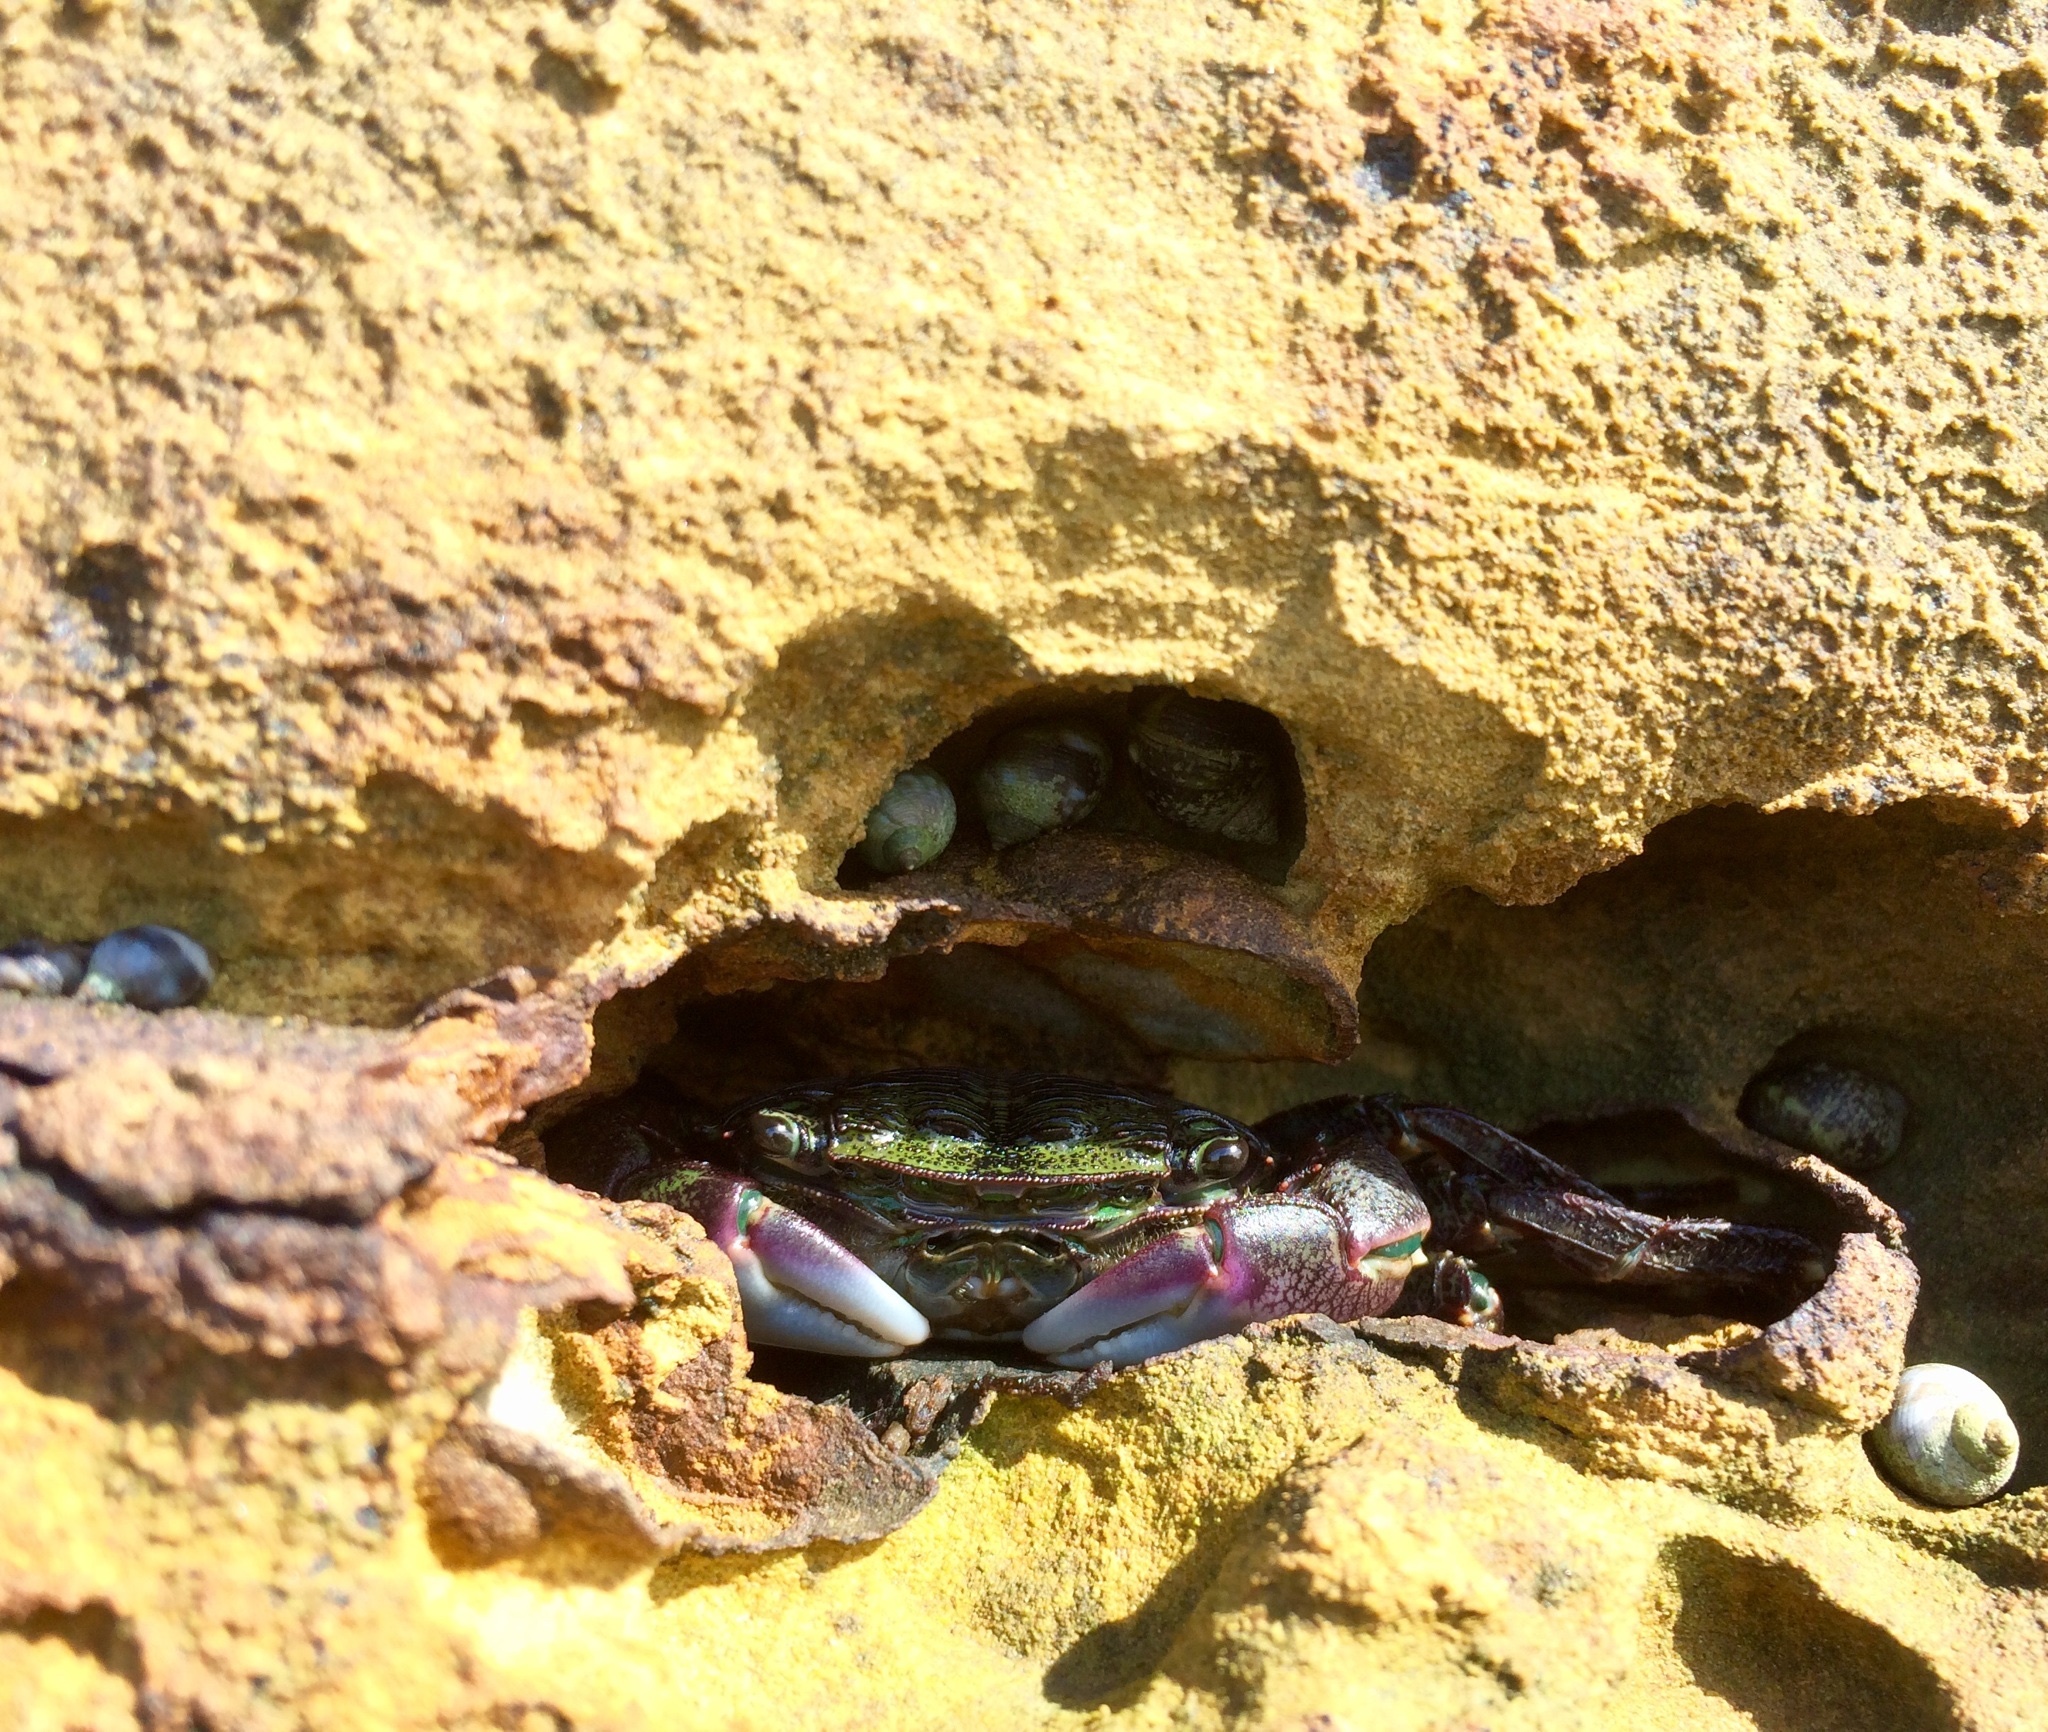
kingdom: Animalia
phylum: Arthropoda
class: Malacostraca
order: Decapoda
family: Grapsidae
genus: Pachygrapsus
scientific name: Pachygrapsus crassipes
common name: Striped shore crab
